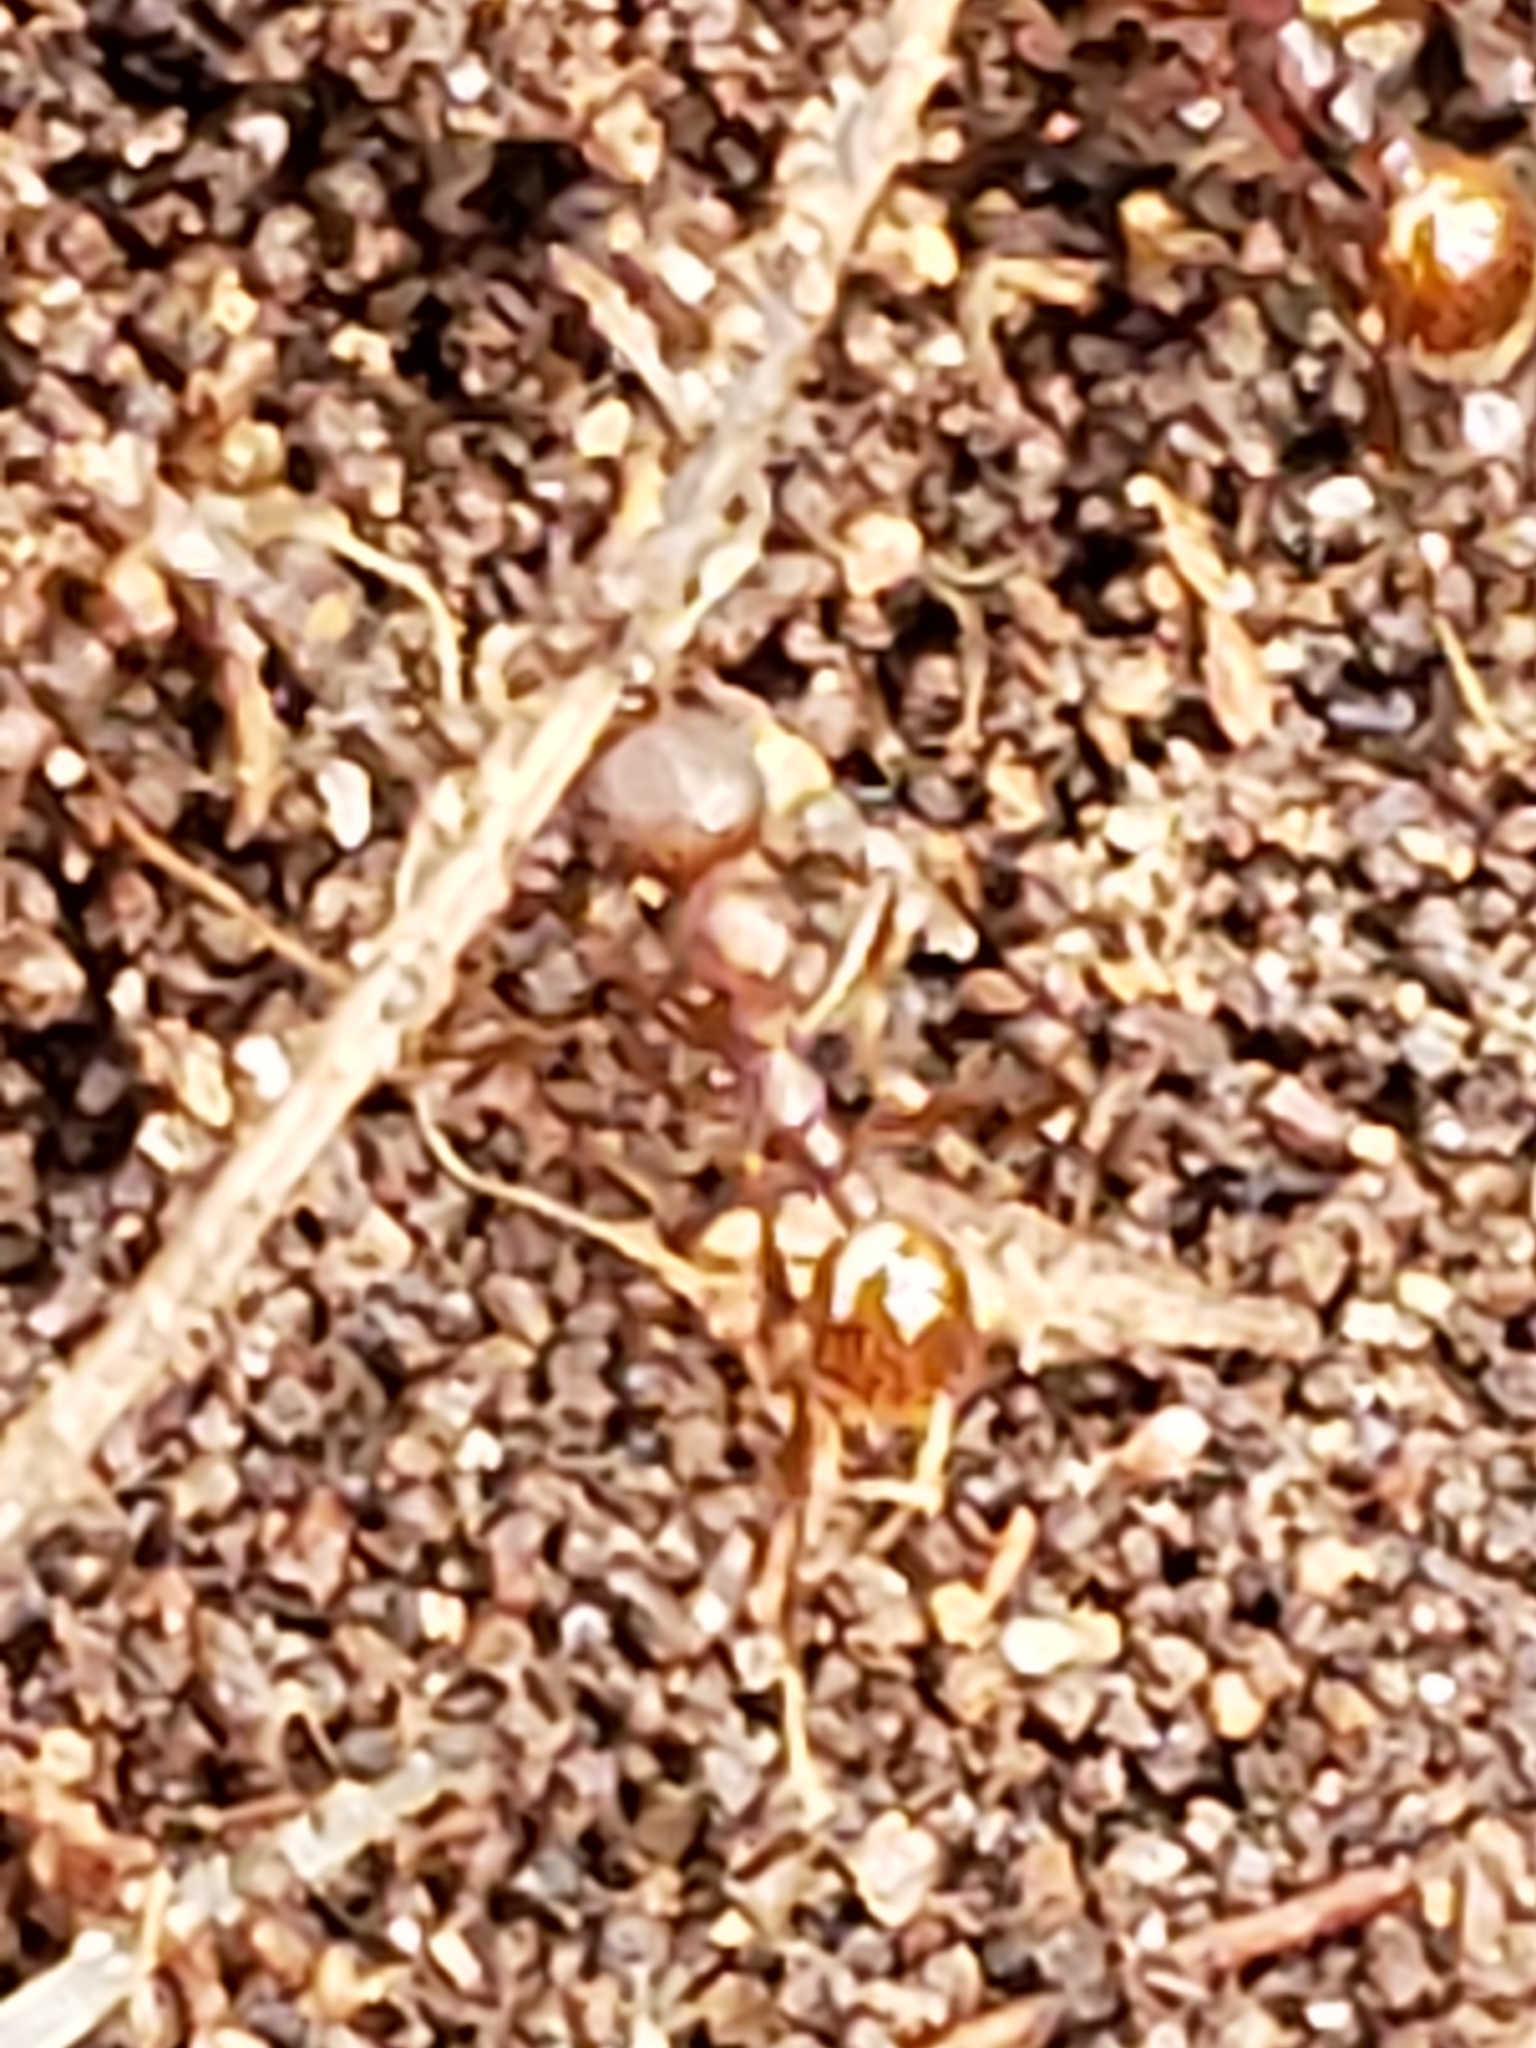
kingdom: Animalia
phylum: Arthropoda
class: Insecta
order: Hymenoptera
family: Formicidae
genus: Aphaenogaster
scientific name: Aphaenogaster fulva
